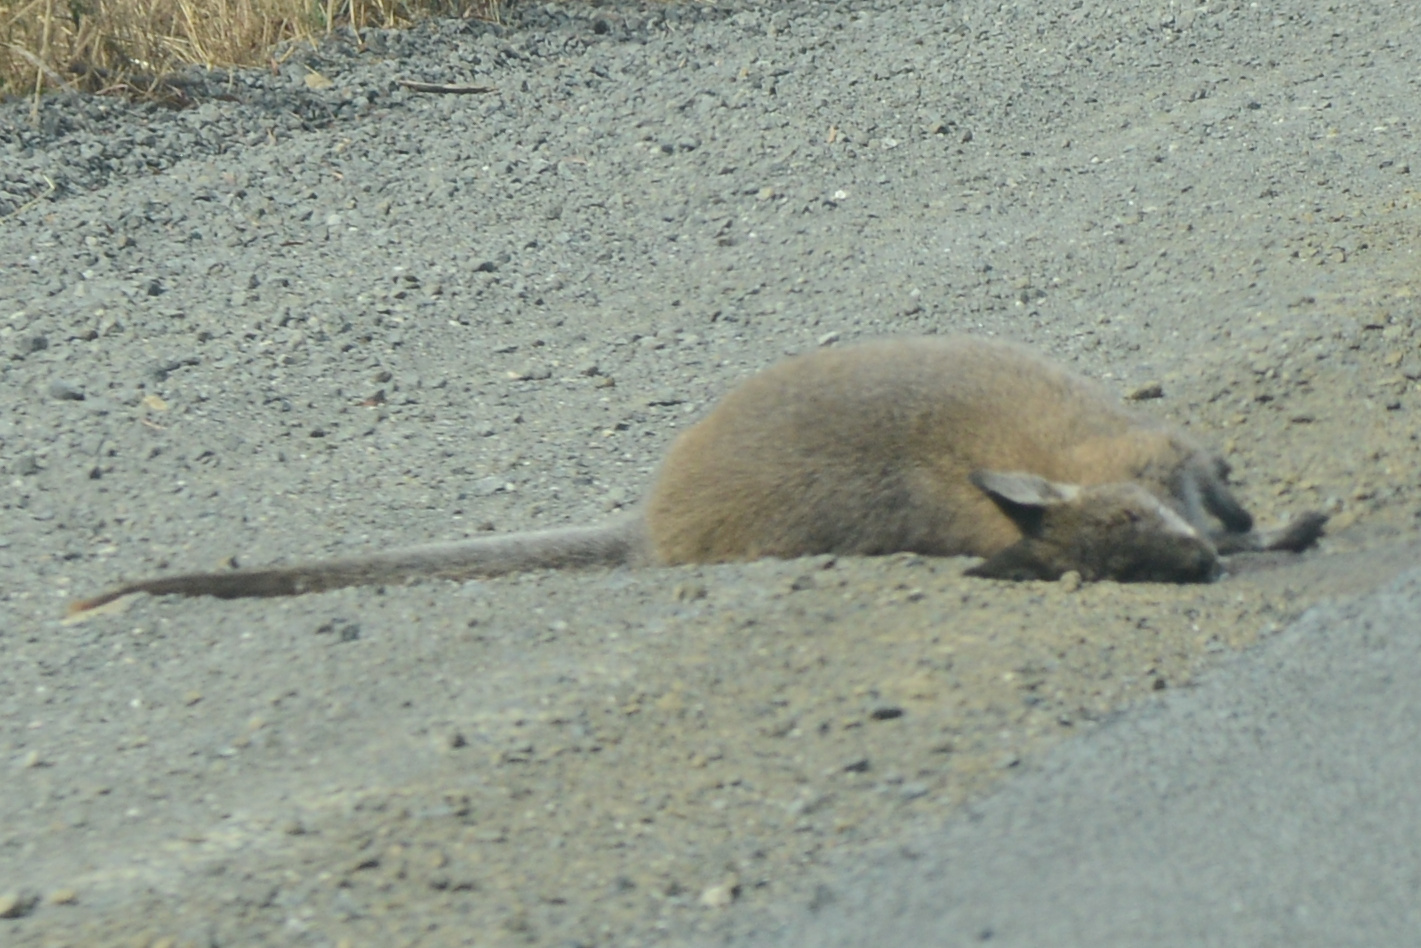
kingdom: Animalia
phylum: Chordata
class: Mammalia
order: Diprotodontia
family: Macropodidae
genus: Notamacropus
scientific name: Notamacropus rufogriseus
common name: Red-necked wallaby
